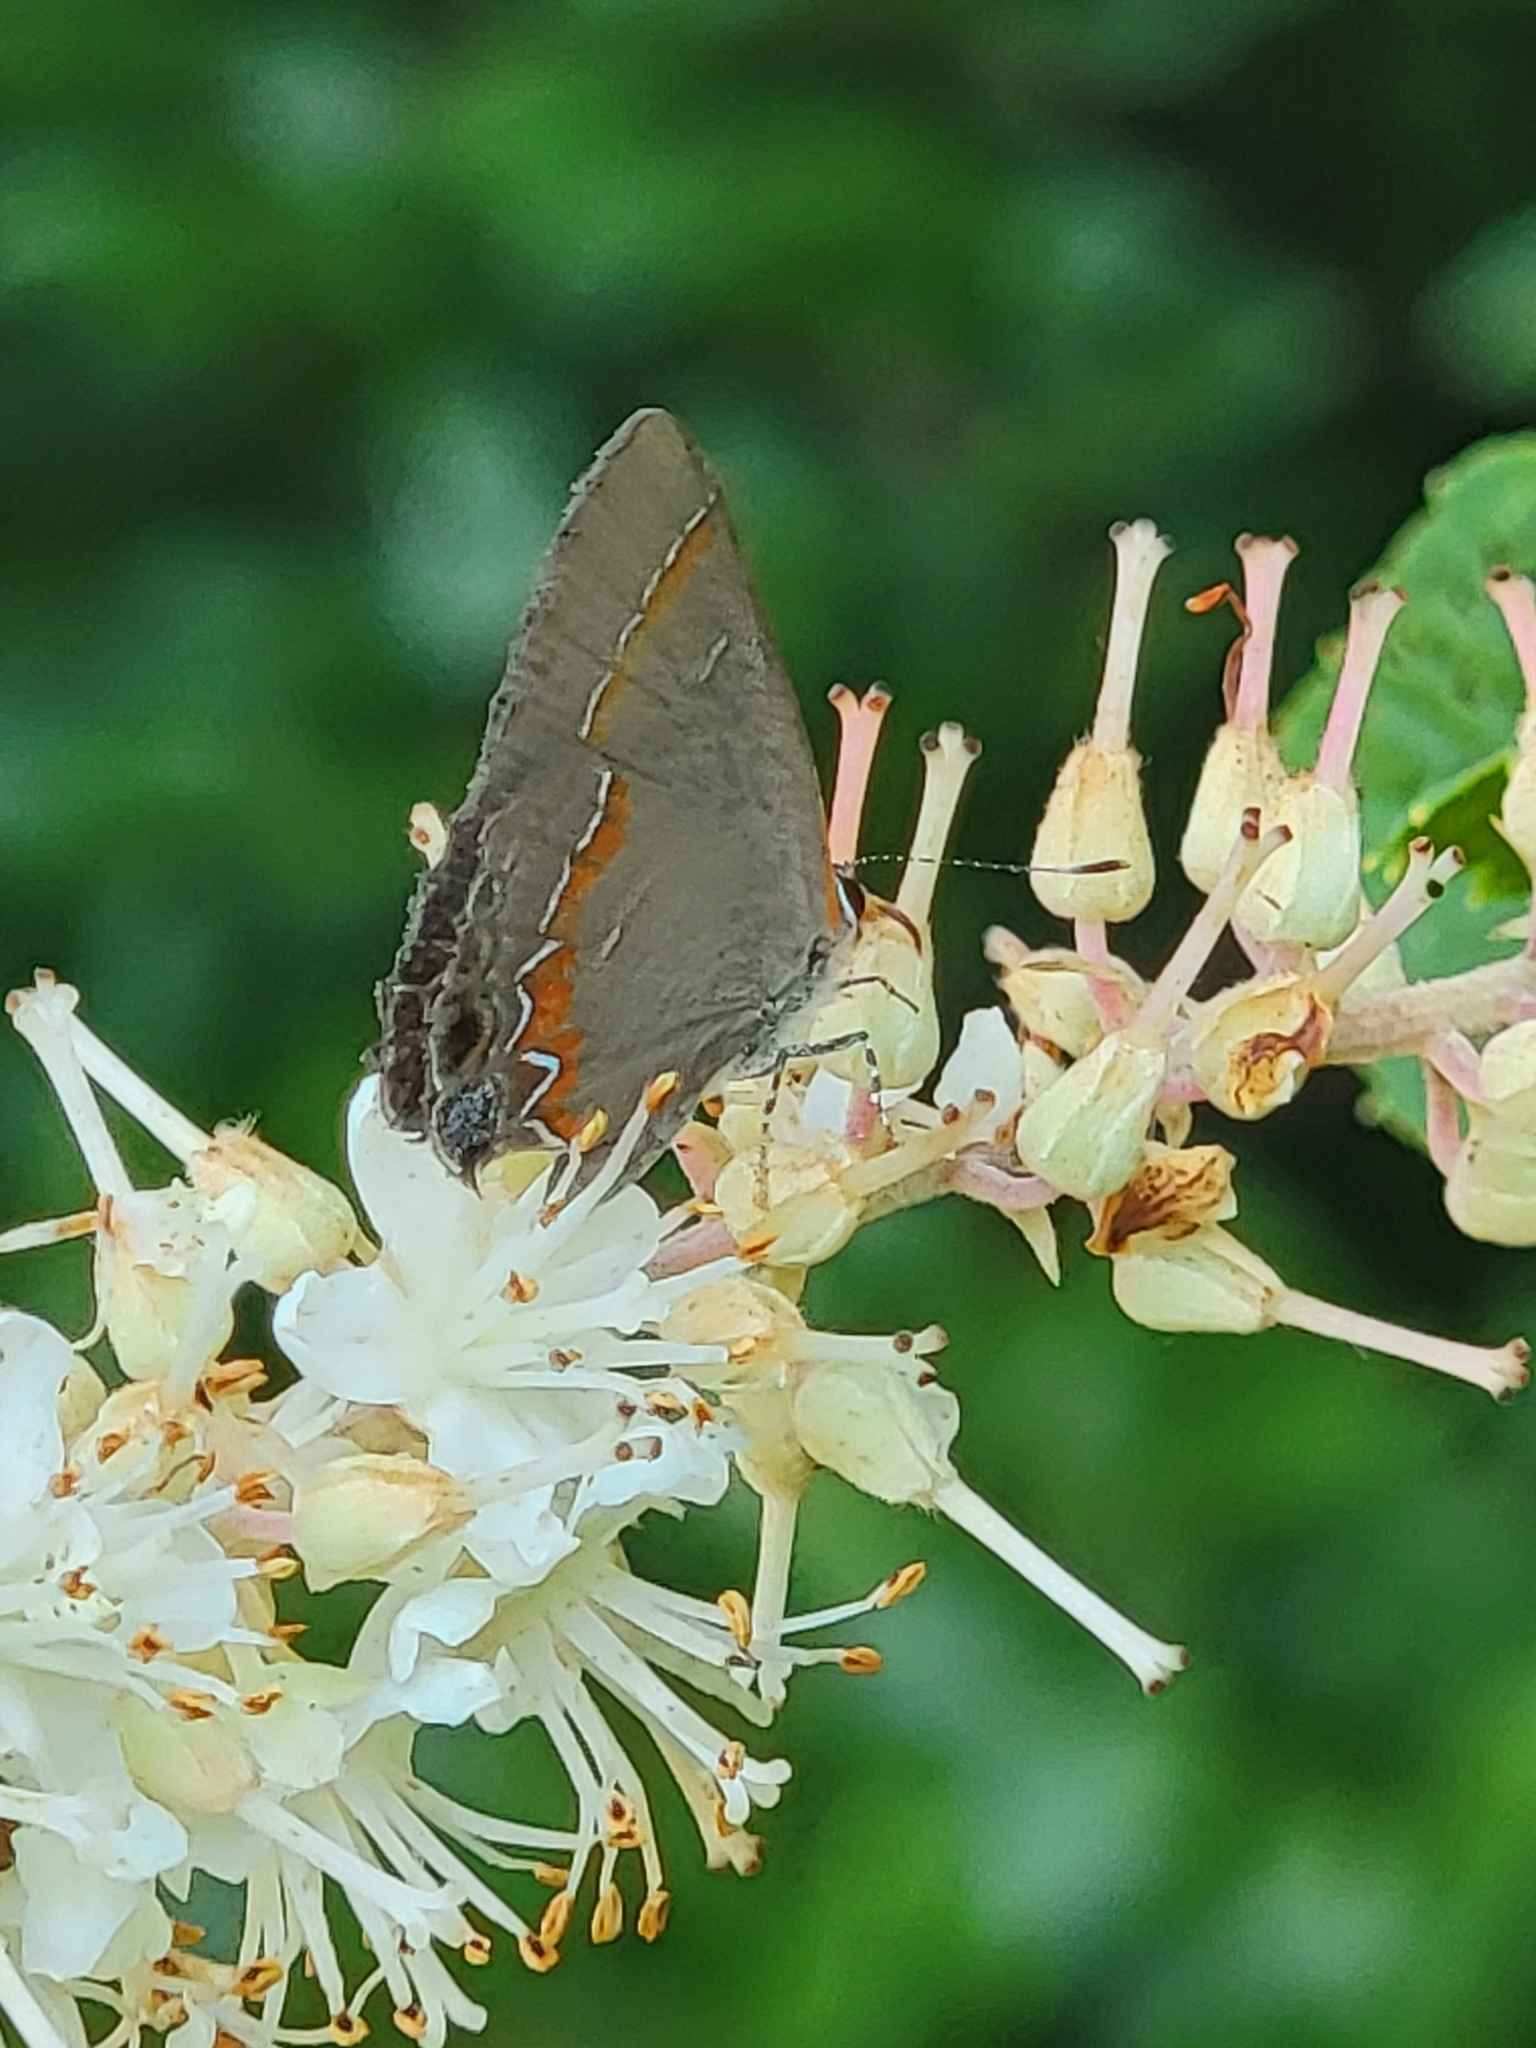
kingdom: Animalia
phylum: Arthropoda
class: Insecta
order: Lepidoptera
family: Lycaenidae
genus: Calycopis
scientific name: Calycopis cecrops
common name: Red-banded hairstreak
